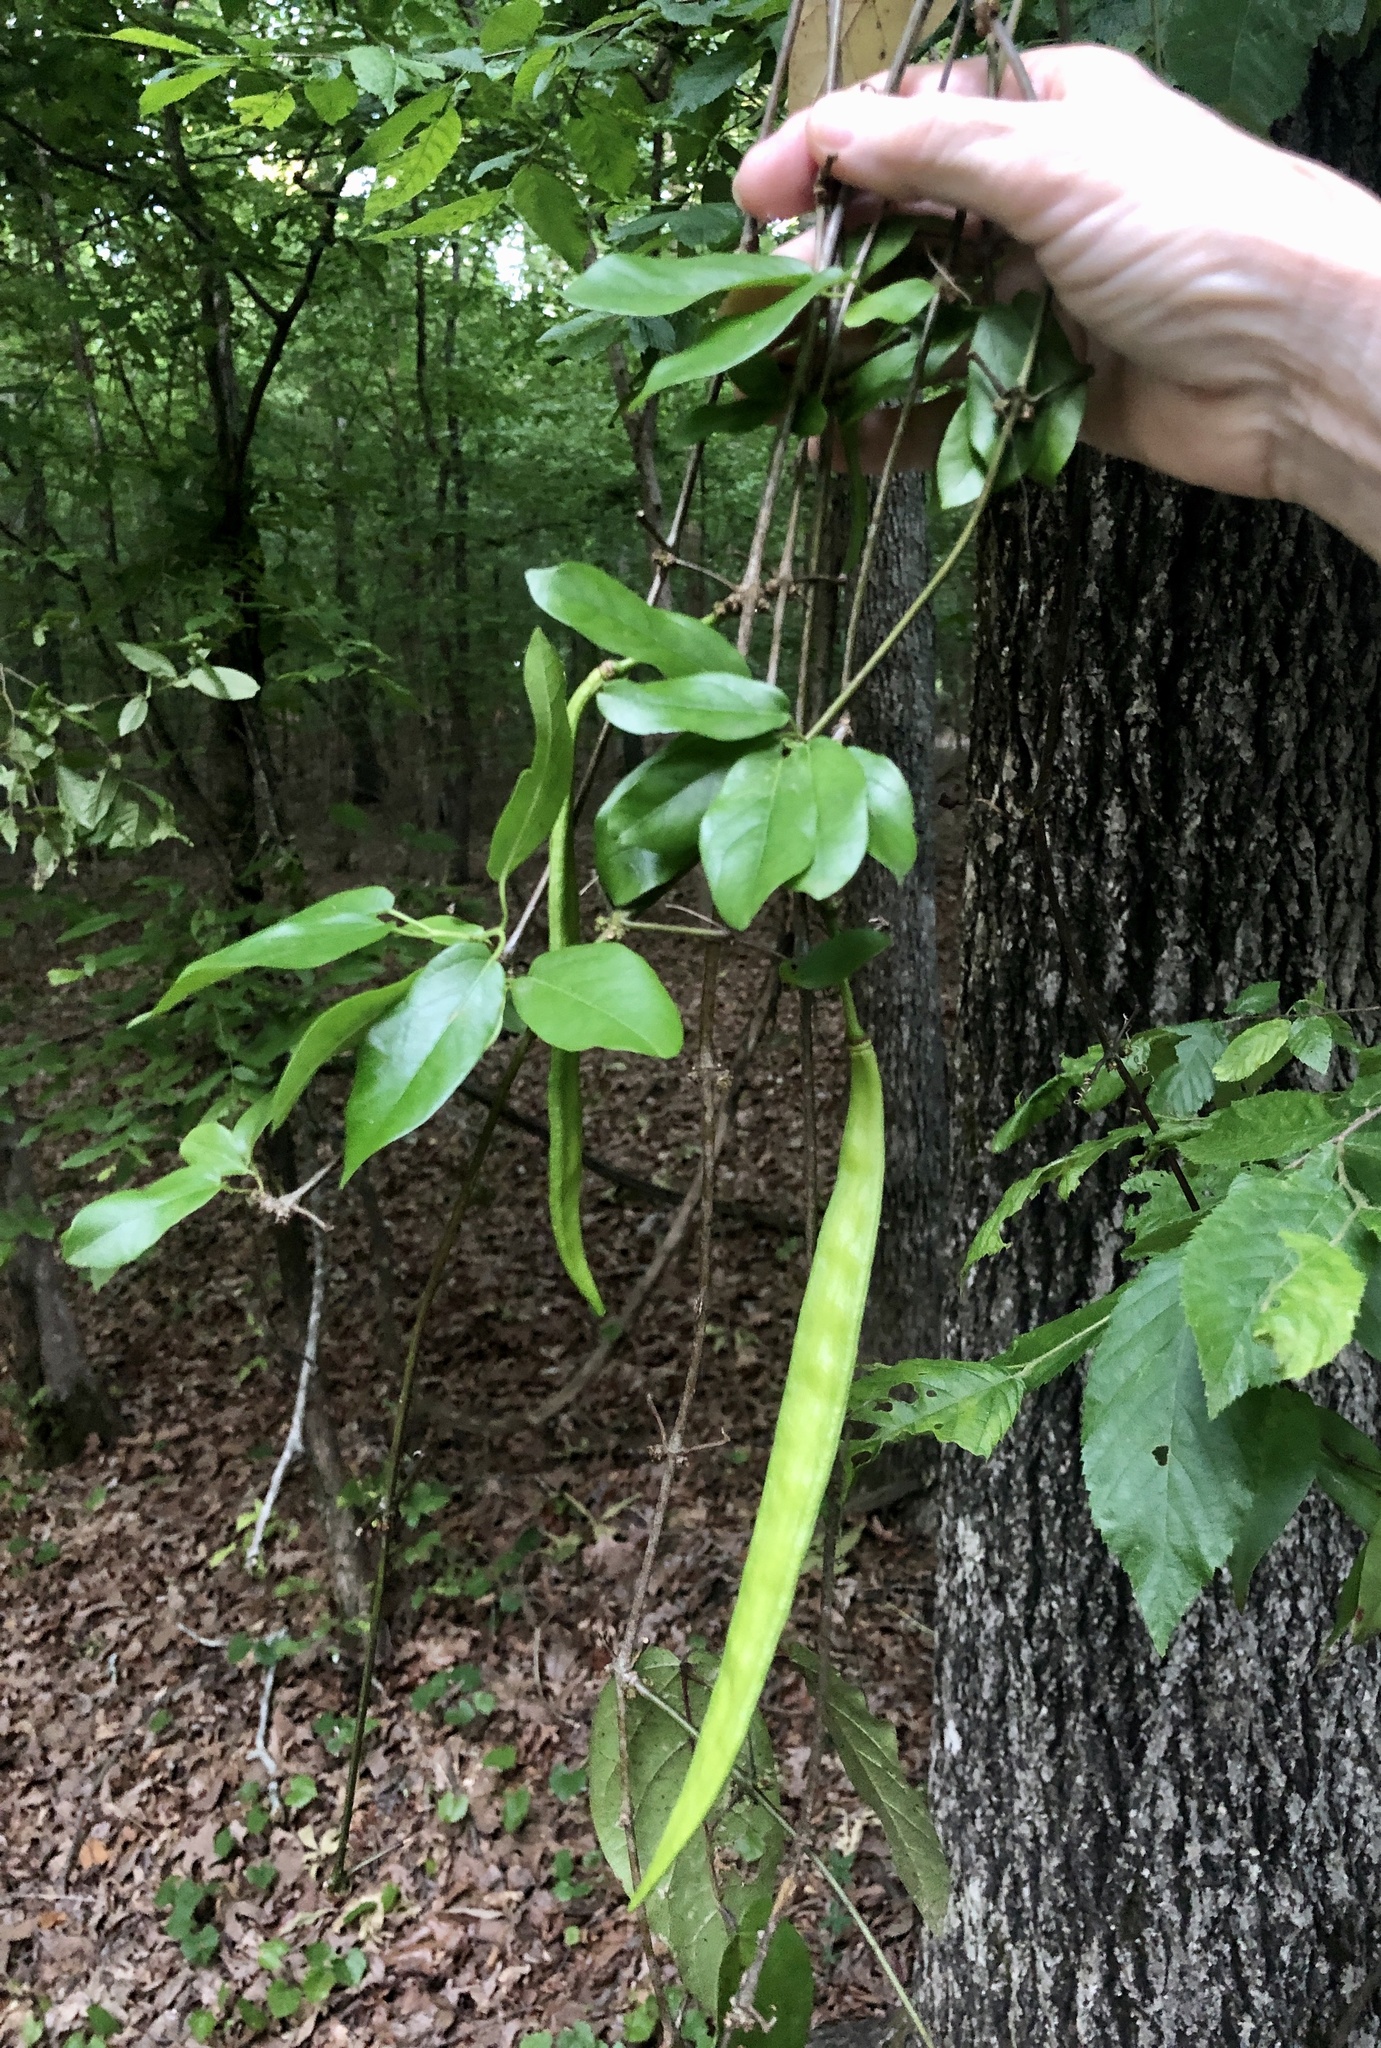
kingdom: Plantae
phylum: Tracheophyta
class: Magnoliopsida
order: Lamiales
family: Bignoniaceae
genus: Bignonia
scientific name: Bignonia capreolata
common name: Crossvine
